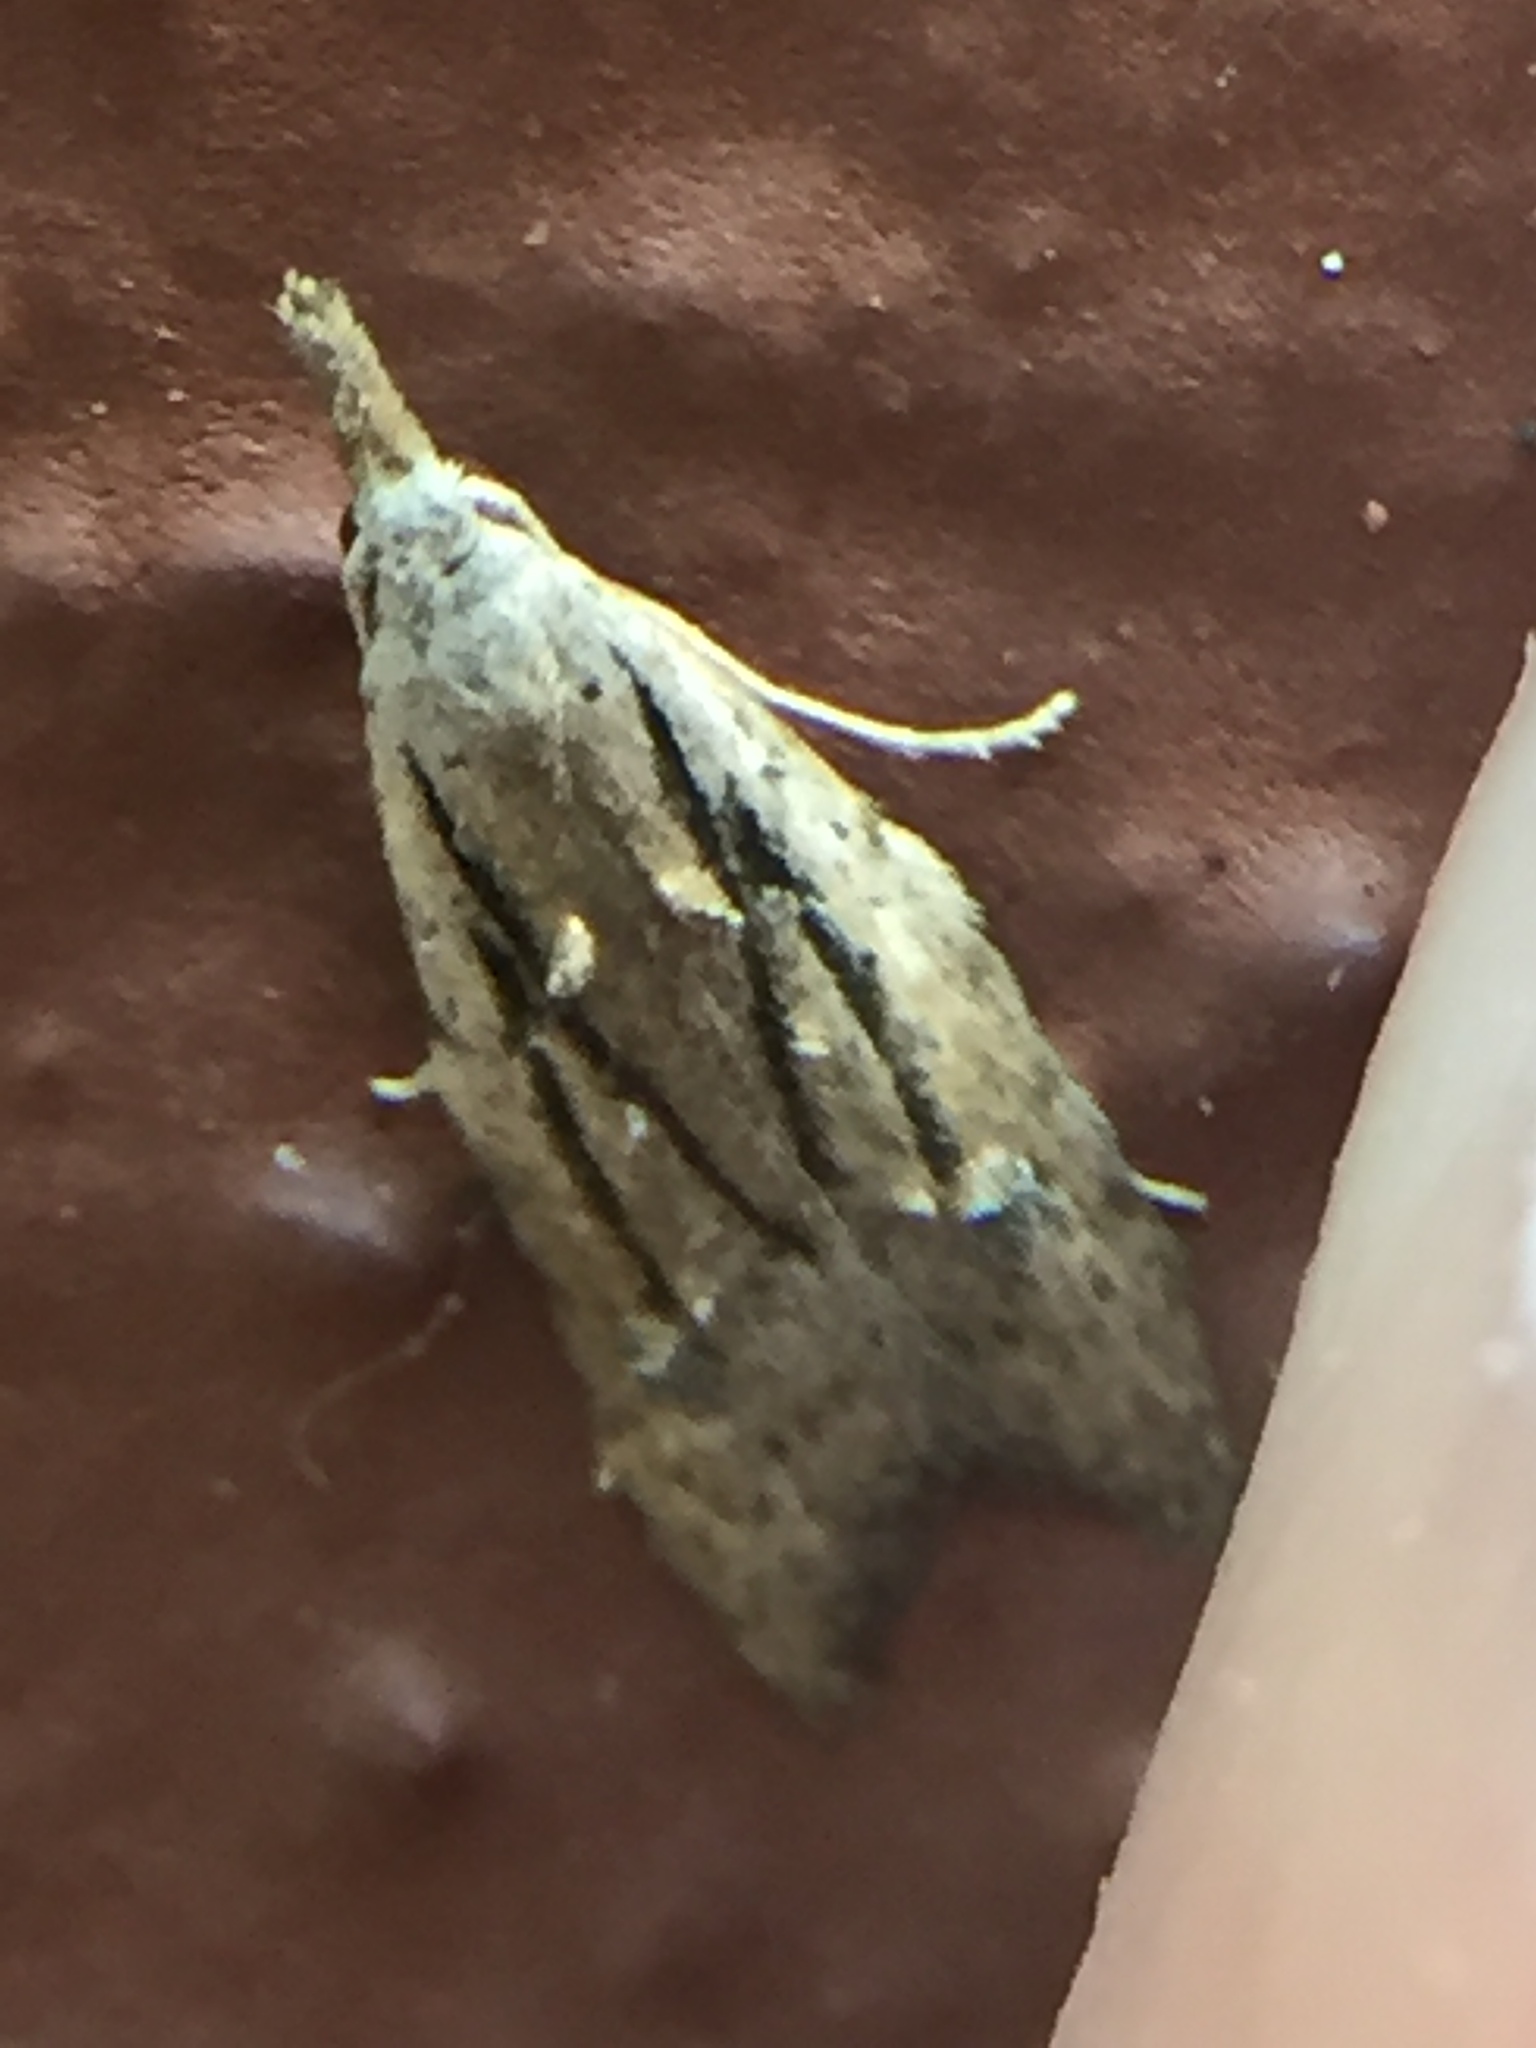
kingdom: Animalia
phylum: Arthropoda
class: Insecta
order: Lepidoptera
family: Carposinidae
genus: Carposina
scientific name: Carposina rubophaga
